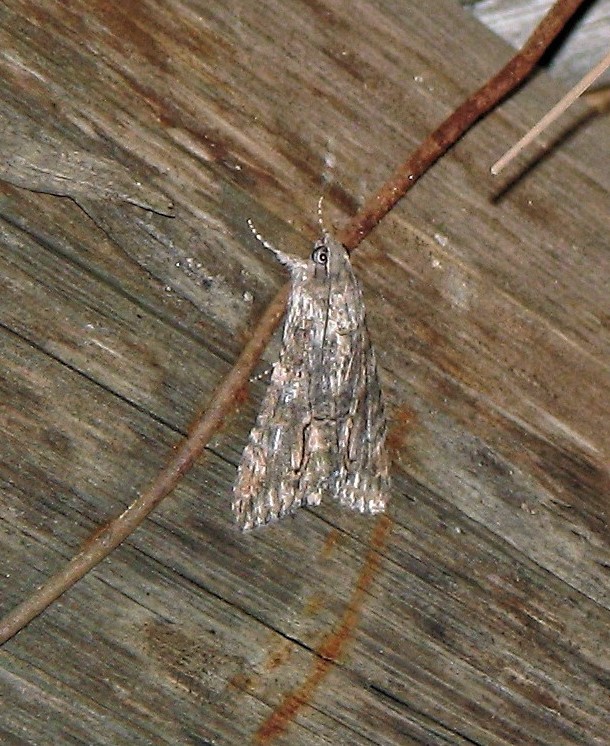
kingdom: Animalia
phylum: Arthropoda
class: Insecta
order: Lepidoptera
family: Erebidae
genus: Melipotis
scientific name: Melipotis acontioides
